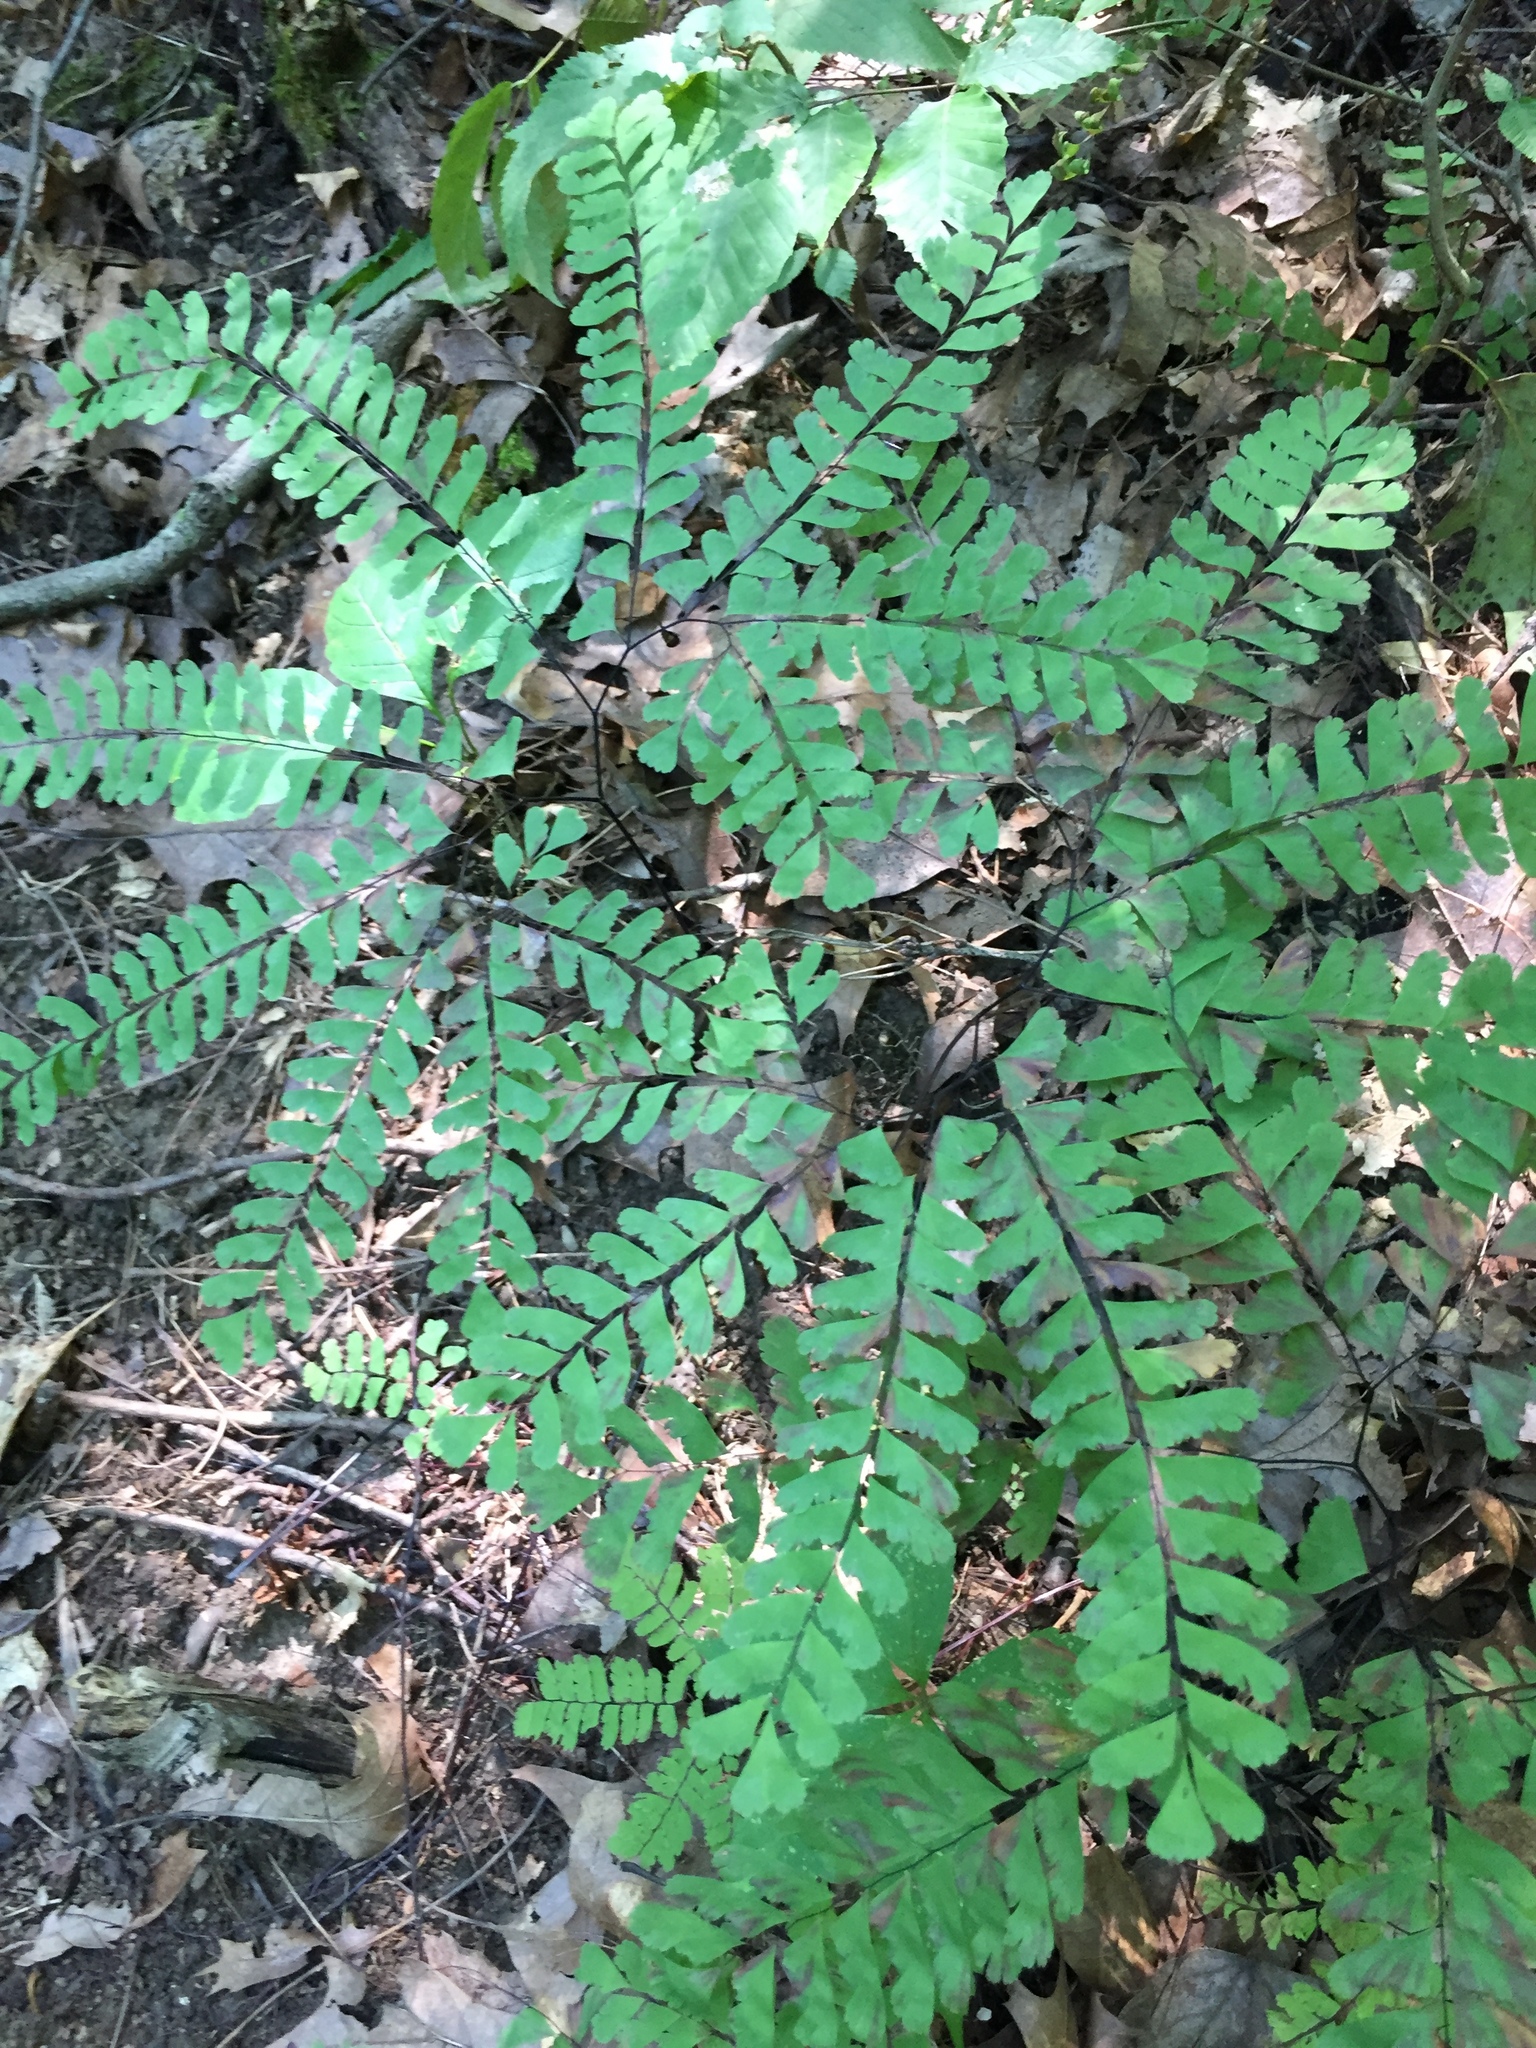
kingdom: Plantae
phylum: Tracheophyta
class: Polypodiopsida
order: Polypodiales
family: Pteridaceae
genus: Adiantum
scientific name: Adiantum pedatum
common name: Five-finger fern
